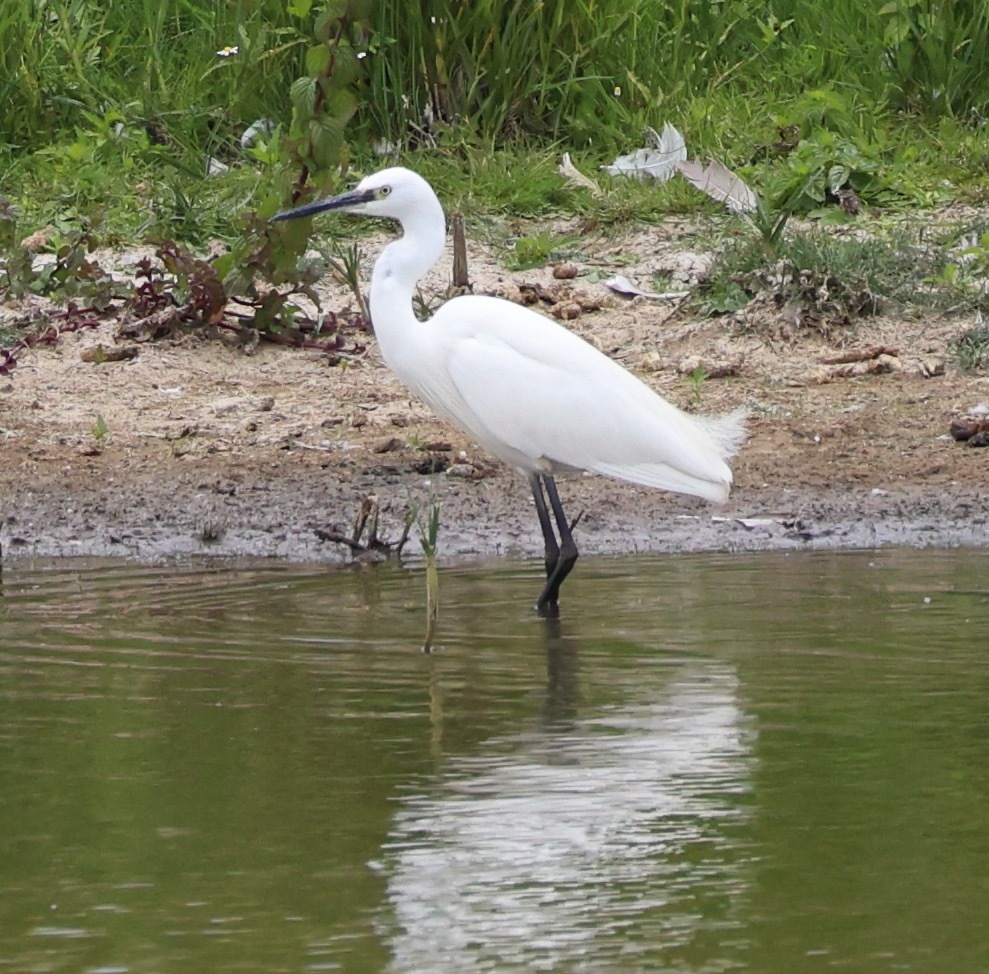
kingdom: Animalia
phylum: Chordata
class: Aves
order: Pelecaniformes
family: Ardeidae
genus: Egretta
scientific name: Egretta garzetta
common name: Little egret
